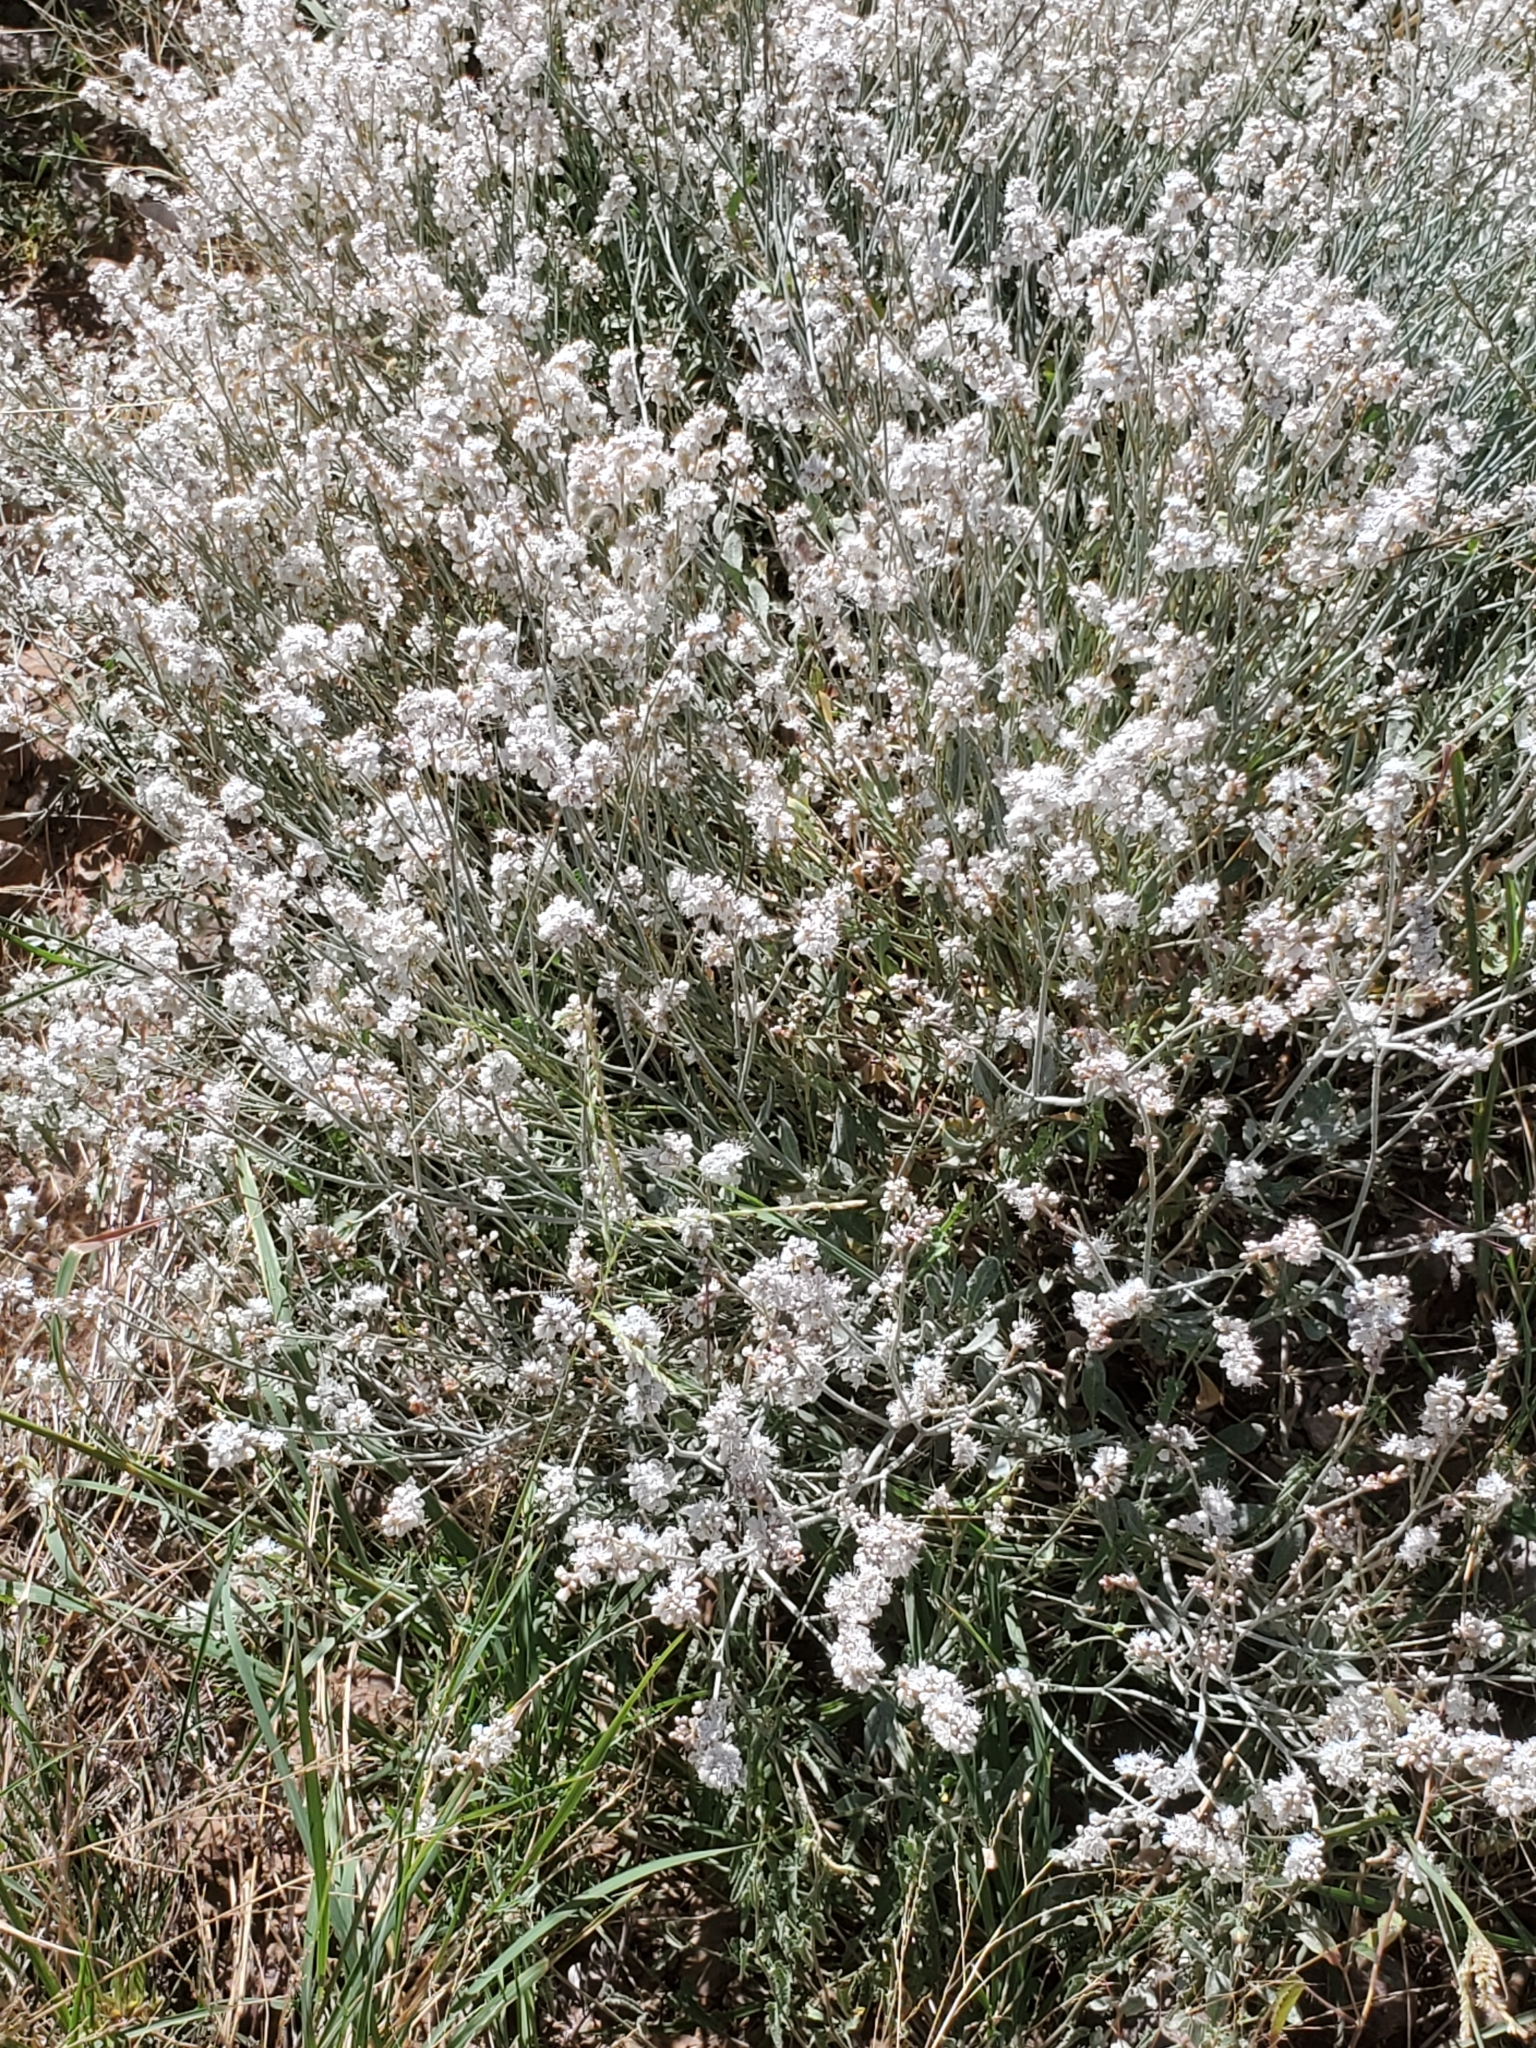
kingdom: Plantae
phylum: Tracheophyta
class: Magnoliopsida
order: Caryophyllales
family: Polygonaceae
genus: Eriogonum
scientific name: Eriogonum wrightii
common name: Bastard-sage
